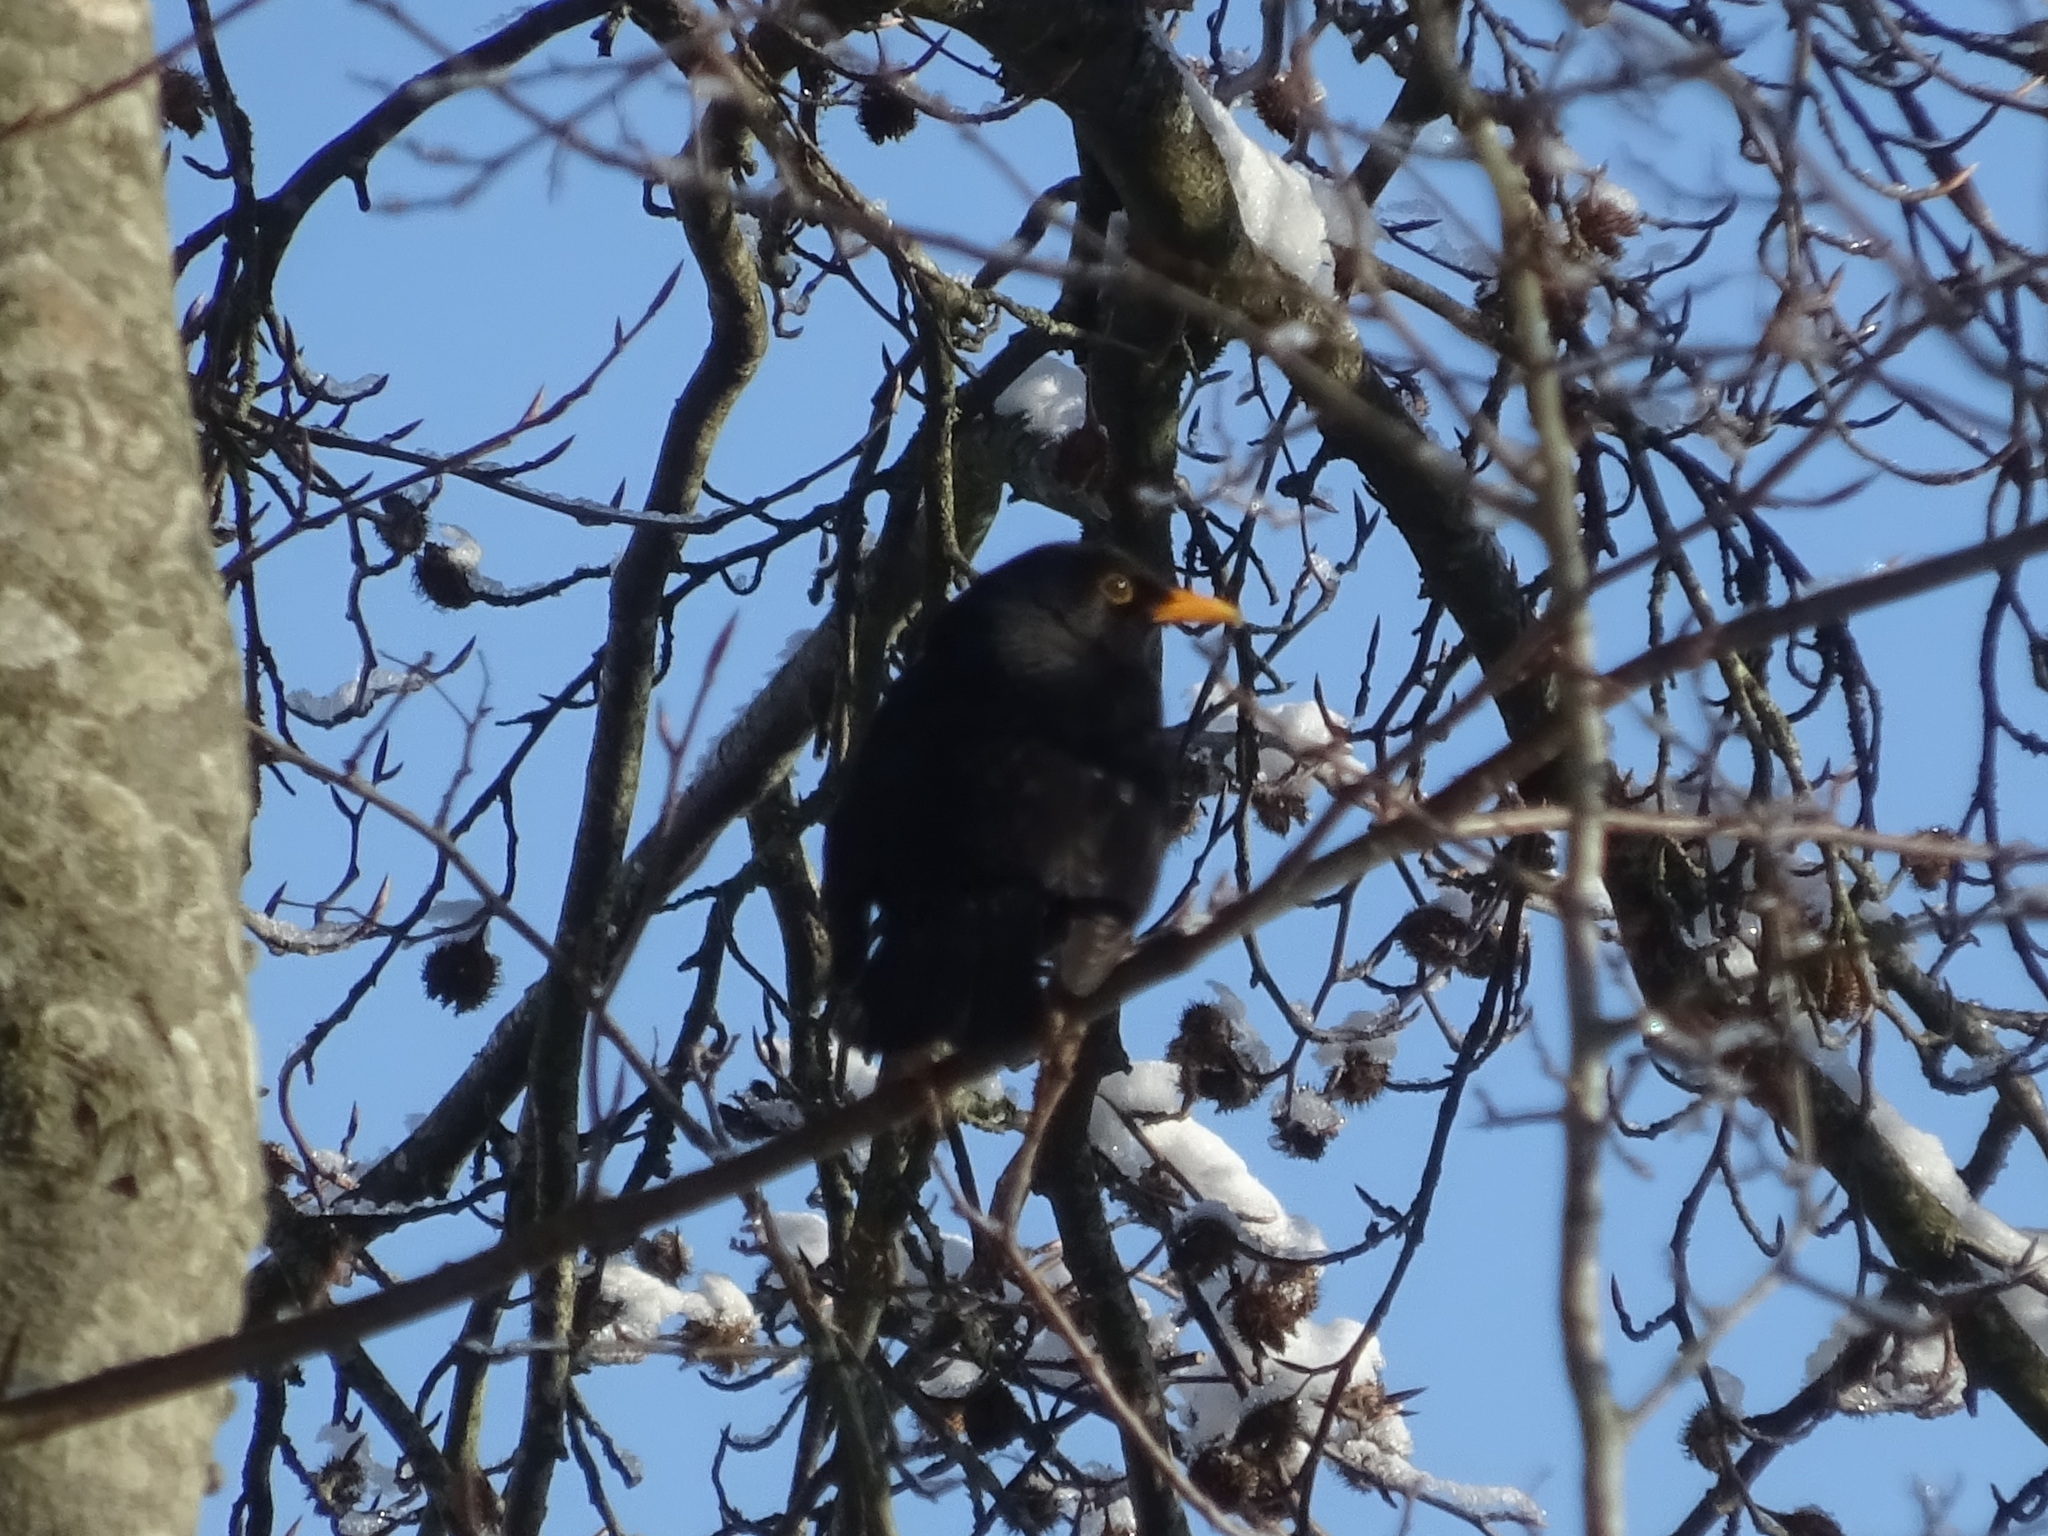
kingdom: Animalia
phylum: Chordata
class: Aves
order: Passeriformes
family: Turdidae
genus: Turdus
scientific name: Turdus merula
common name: Common blackbird
